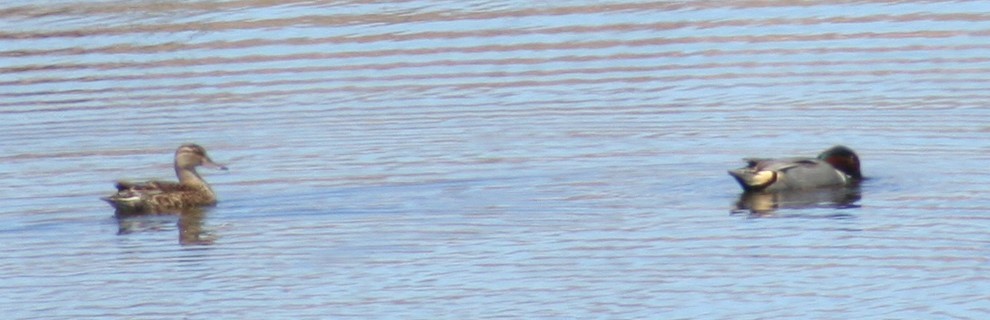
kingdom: Animalia
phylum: Chordata
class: Aves
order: Anseriformes
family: Anatidae
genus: Anas
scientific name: Anas crecca
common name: Eurasian teal
